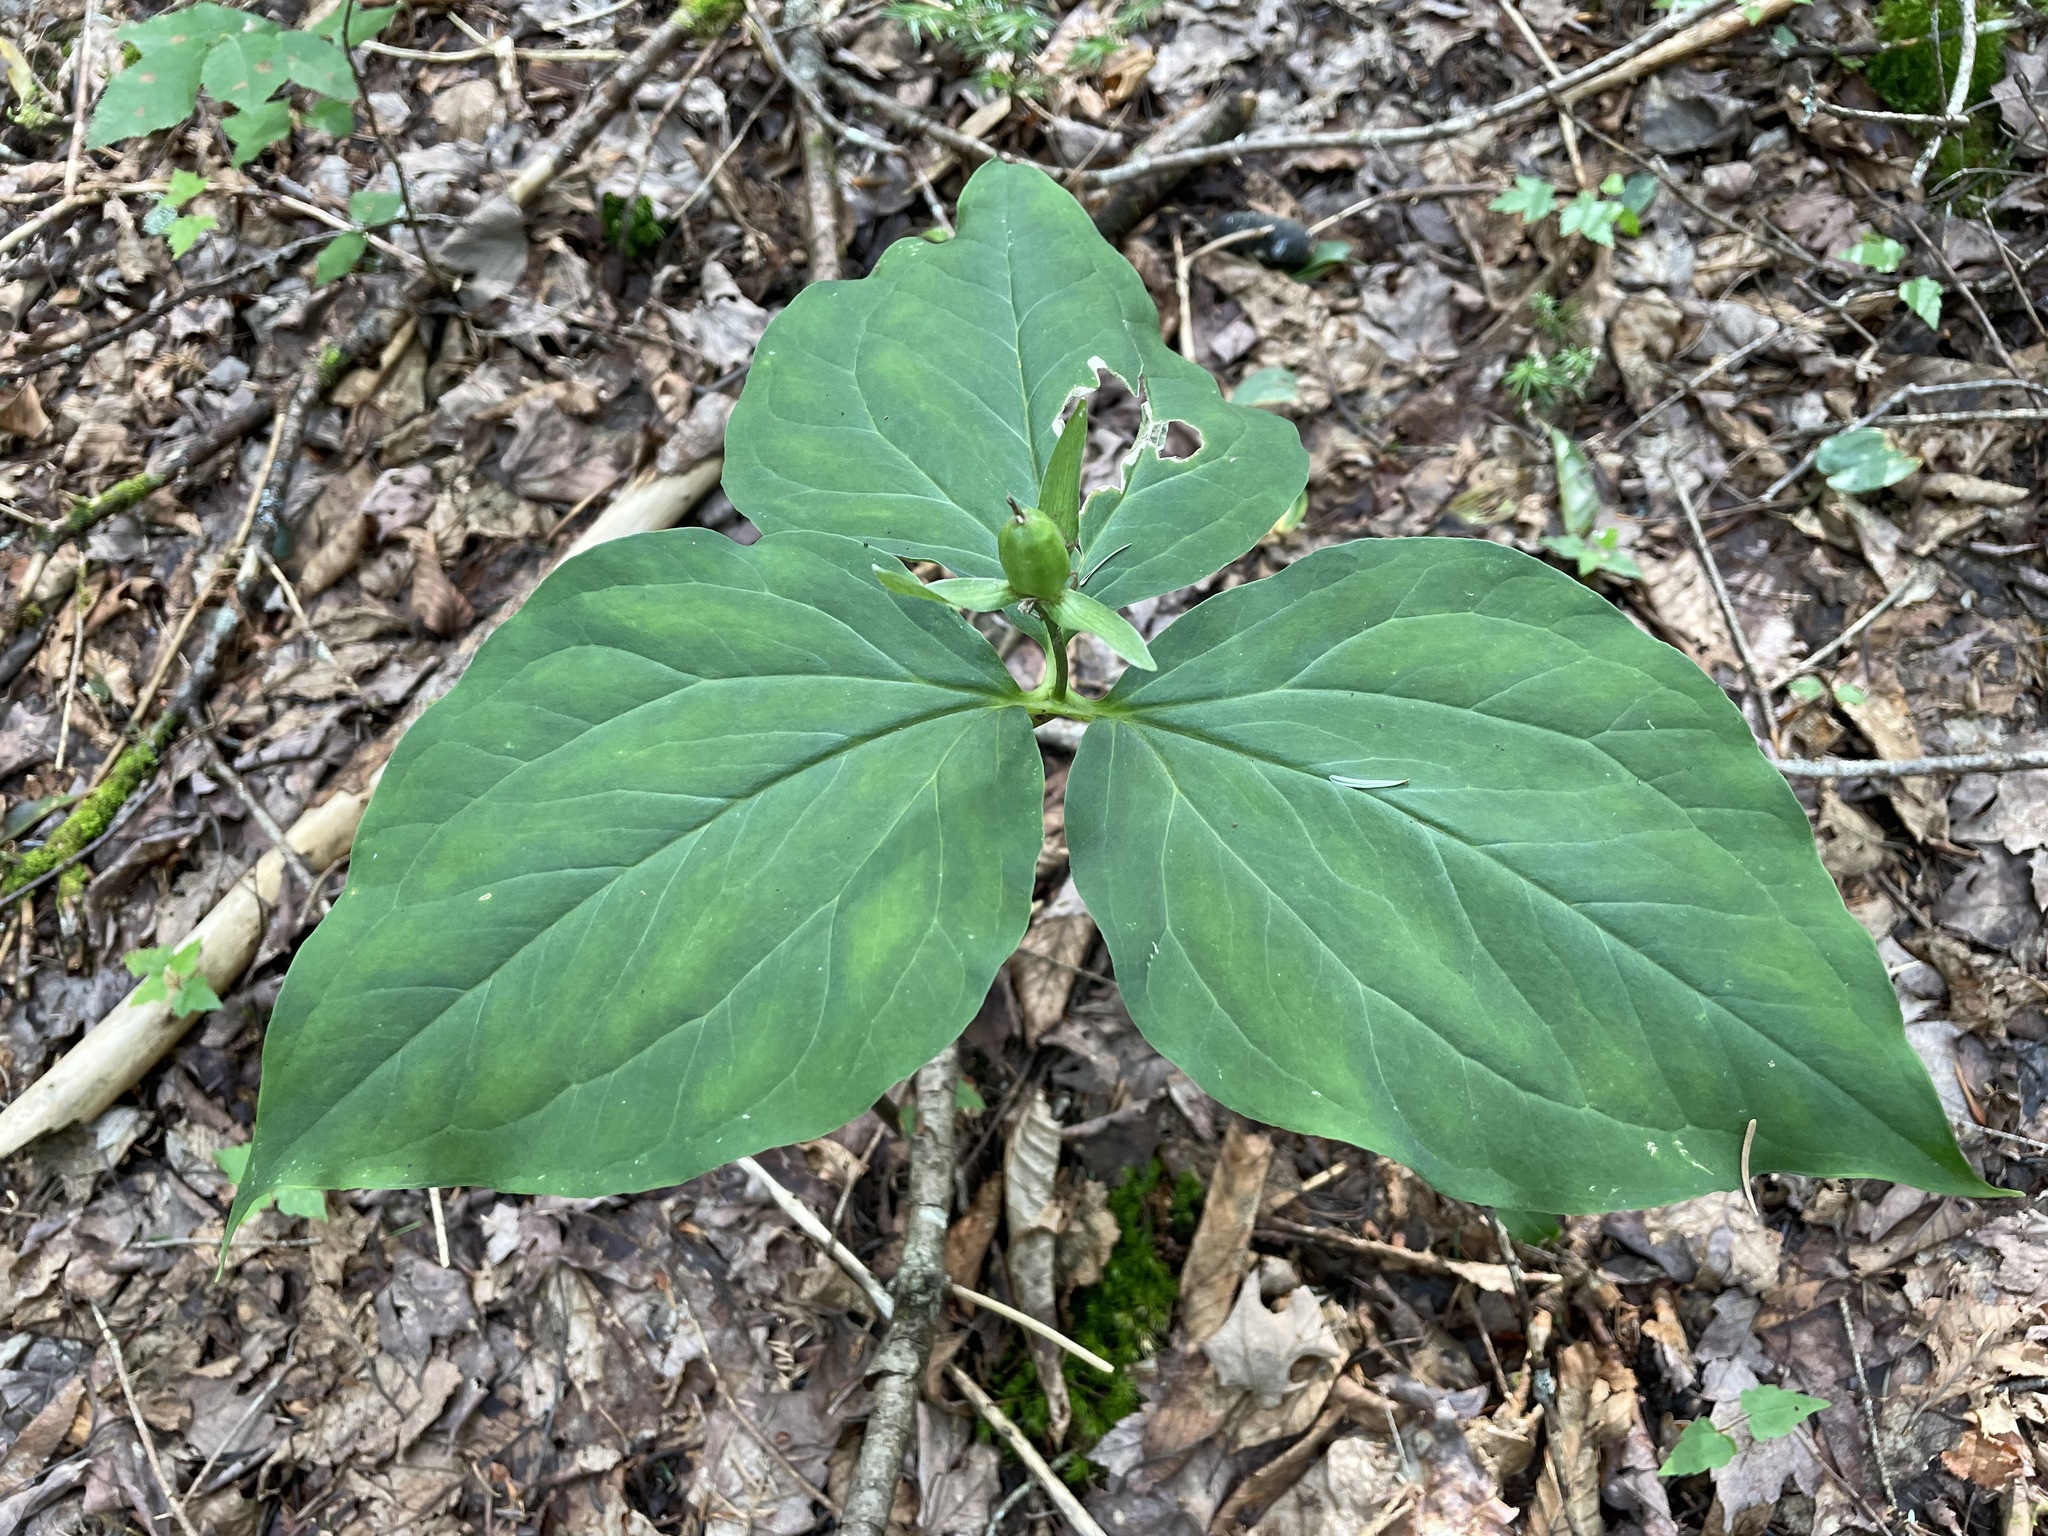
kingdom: Plantae
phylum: Tracheophyta
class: Liliopsida
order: Liliales
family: Melanthiaceae
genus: Trillium
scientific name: Trillium undulatum
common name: Paint trillium
